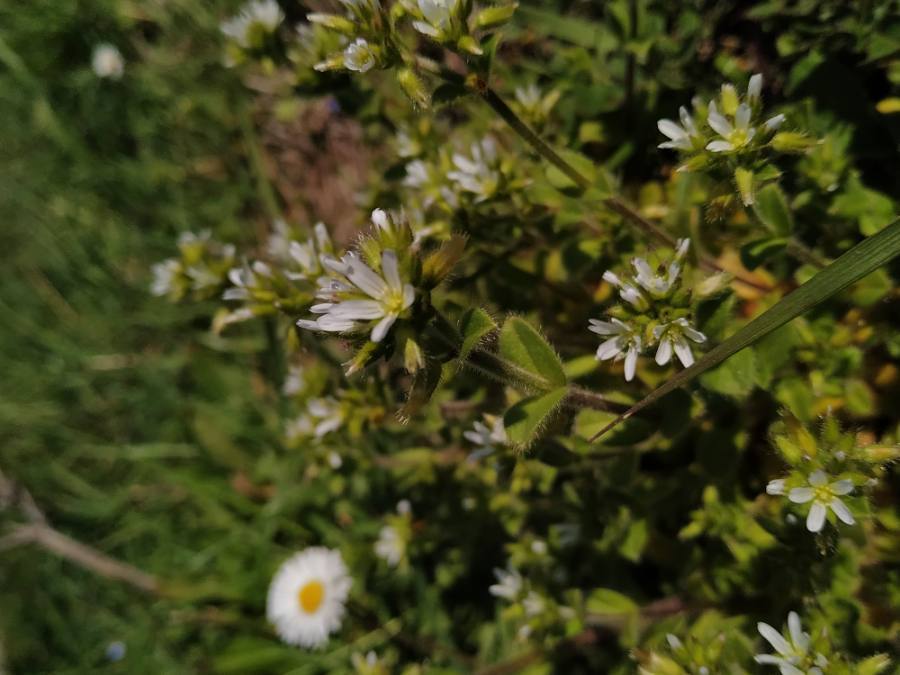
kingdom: Plantae
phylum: Tracheophyta
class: Magnoliopsida
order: Caryophyllales
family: Caryophyllaceae
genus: Cerastium
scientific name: Cerastium glomeratum
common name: Sticky chickweed
